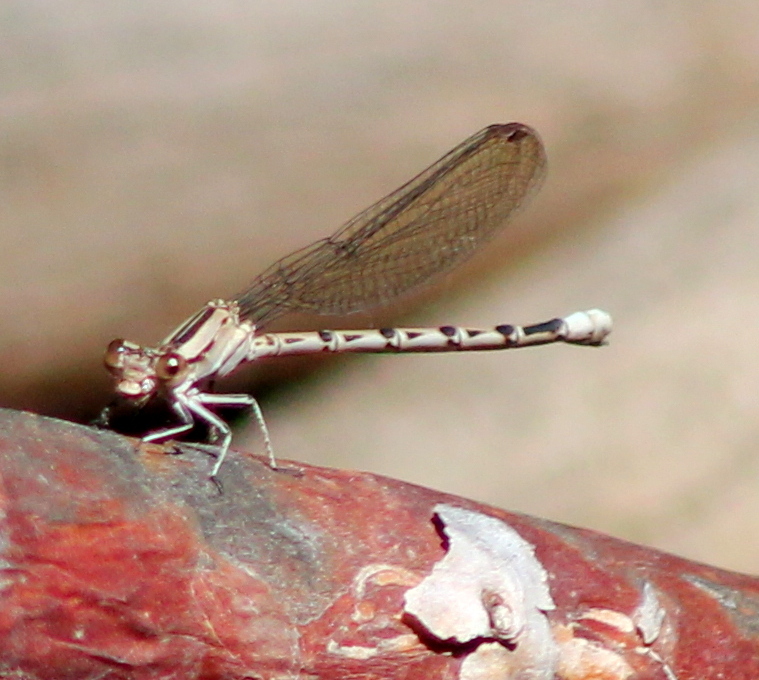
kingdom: Animalia
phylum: Arthropoda
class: Insecta
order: Odonata
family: Coenagrionidae
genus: Argia
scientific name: Argia funebris
